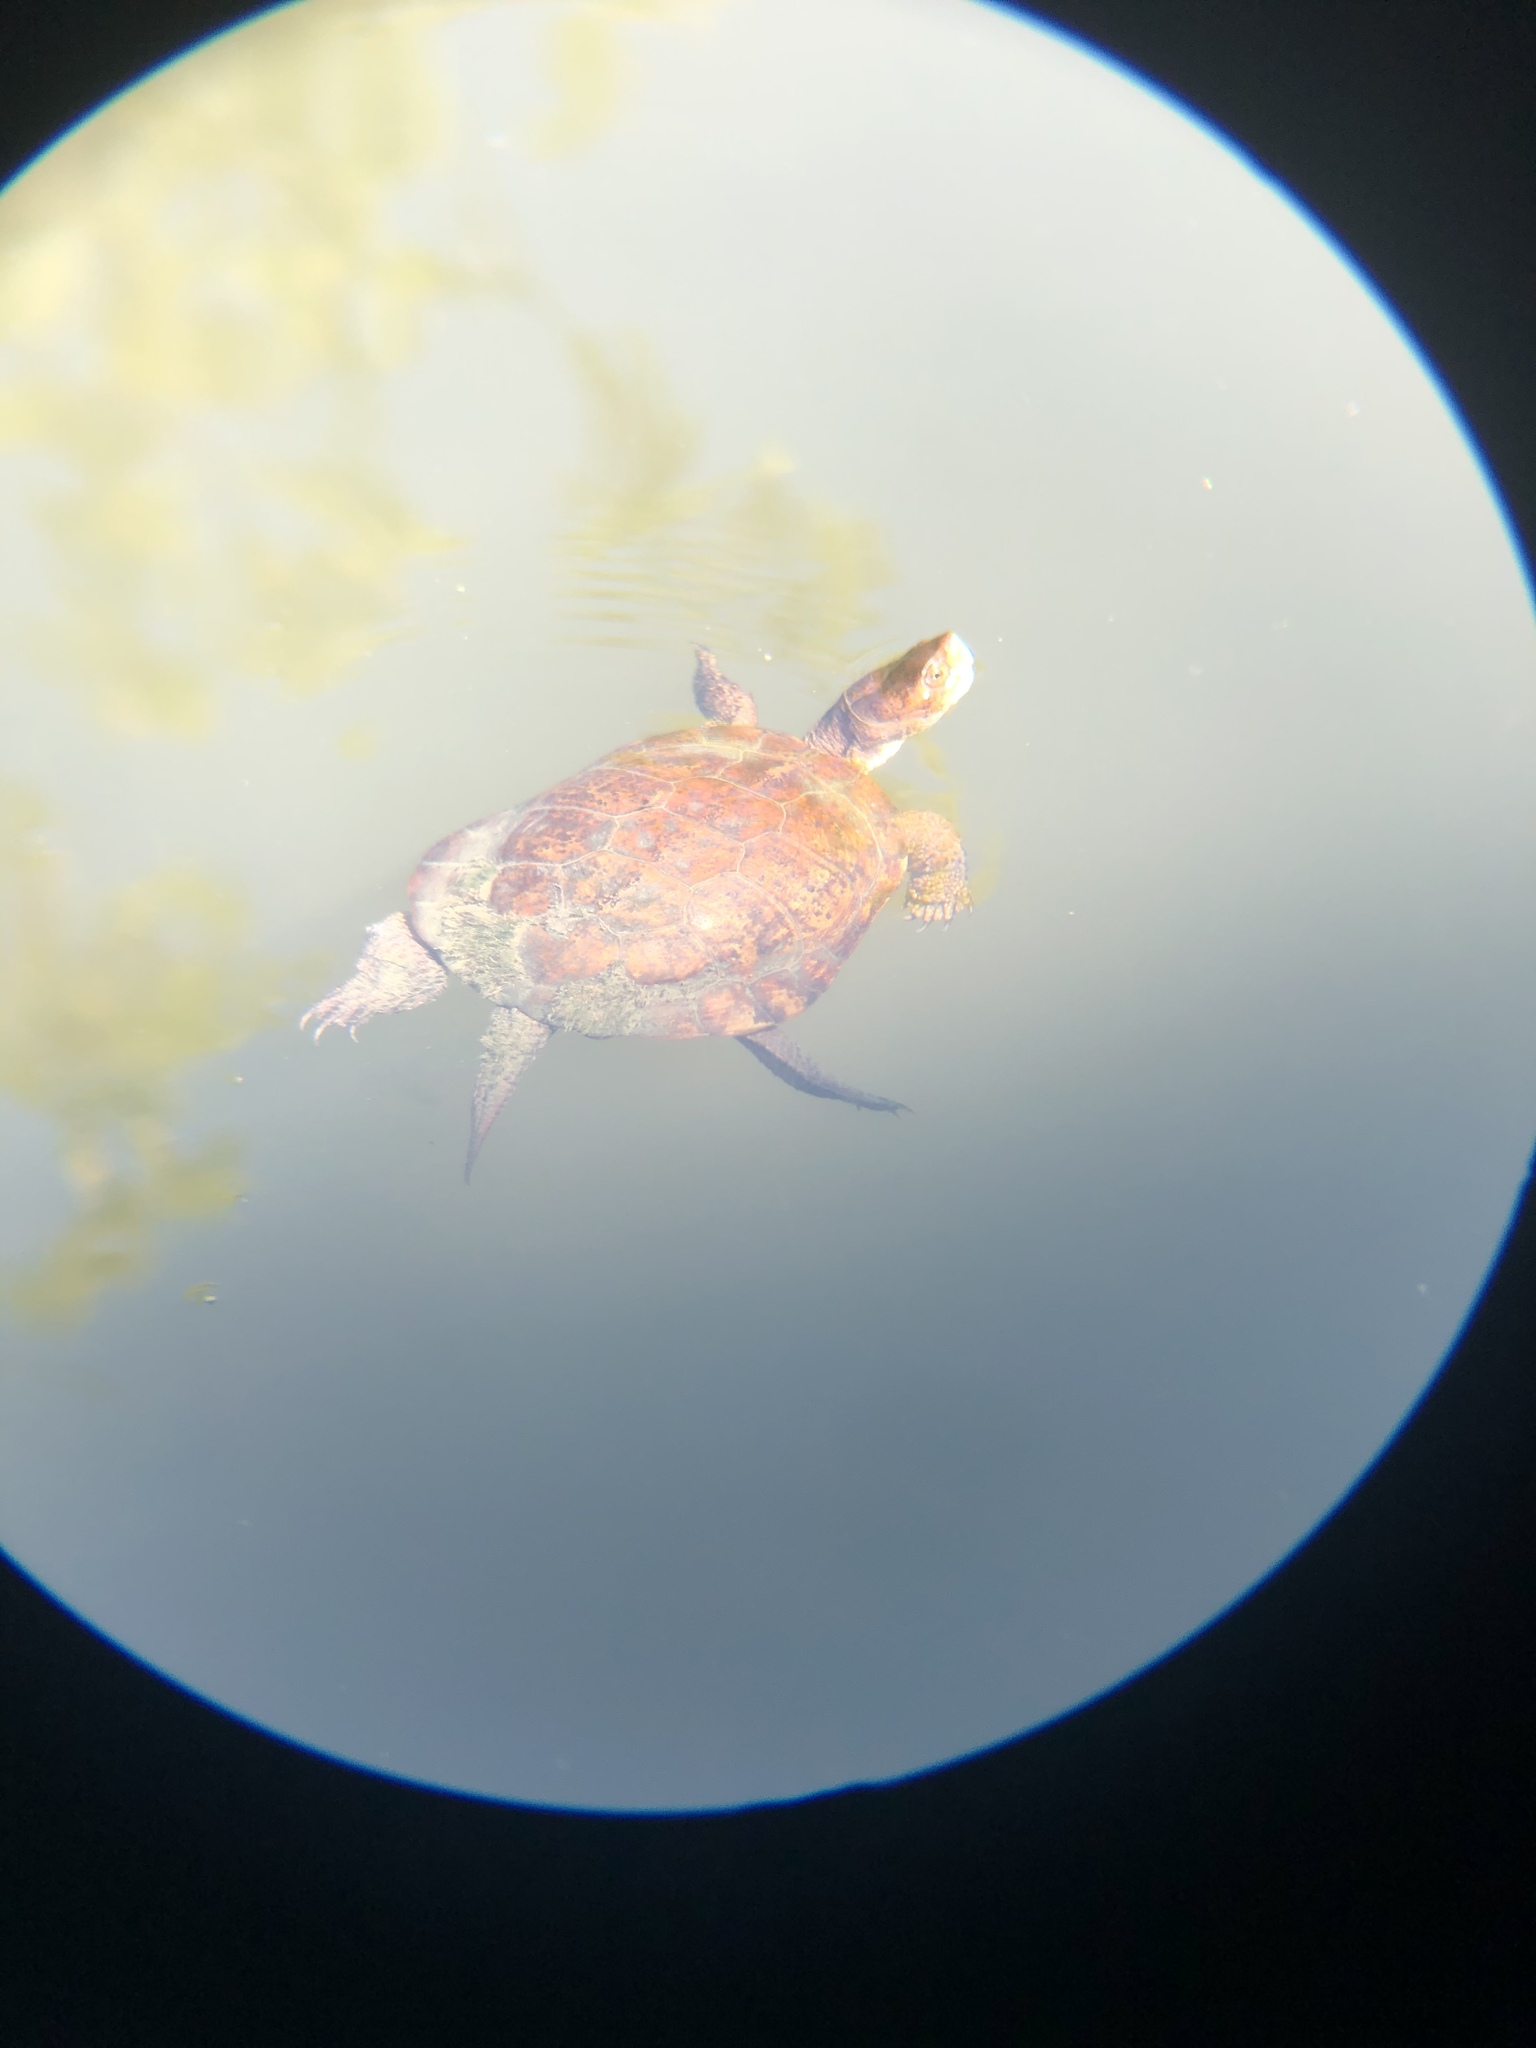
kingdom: Animalia
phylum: Chordata
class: Testudines
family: Emydidae
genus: Actinemys
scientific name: Actinemys marmorata
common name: Western pond turtle
